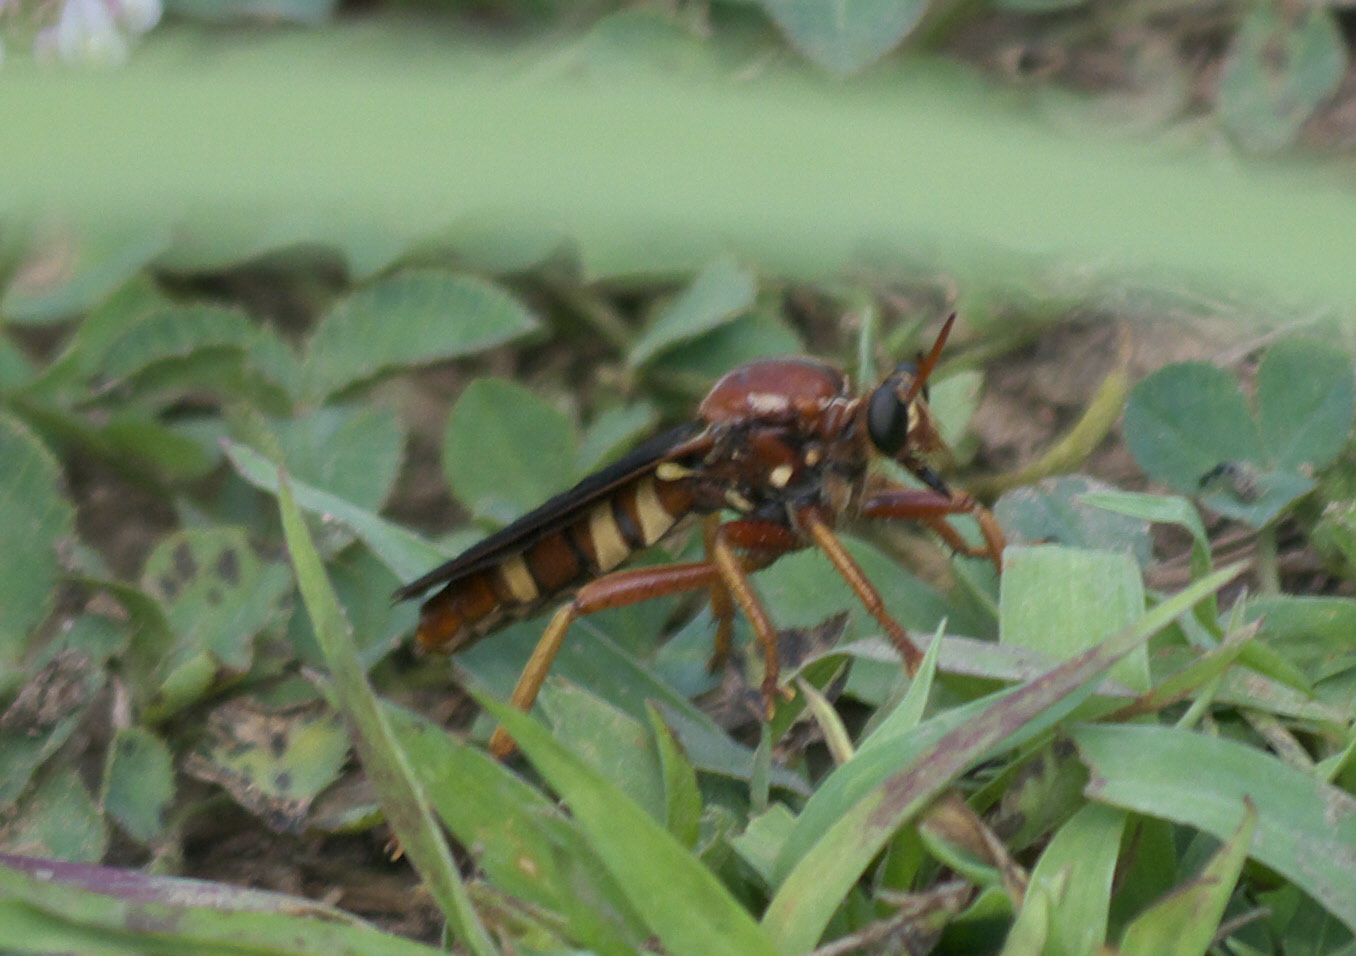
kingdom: Animalia
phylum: Arthropoda
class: Insecta
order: Diptera
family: Asilidae
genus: Prolepsis
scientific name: Prolepsis tristis
